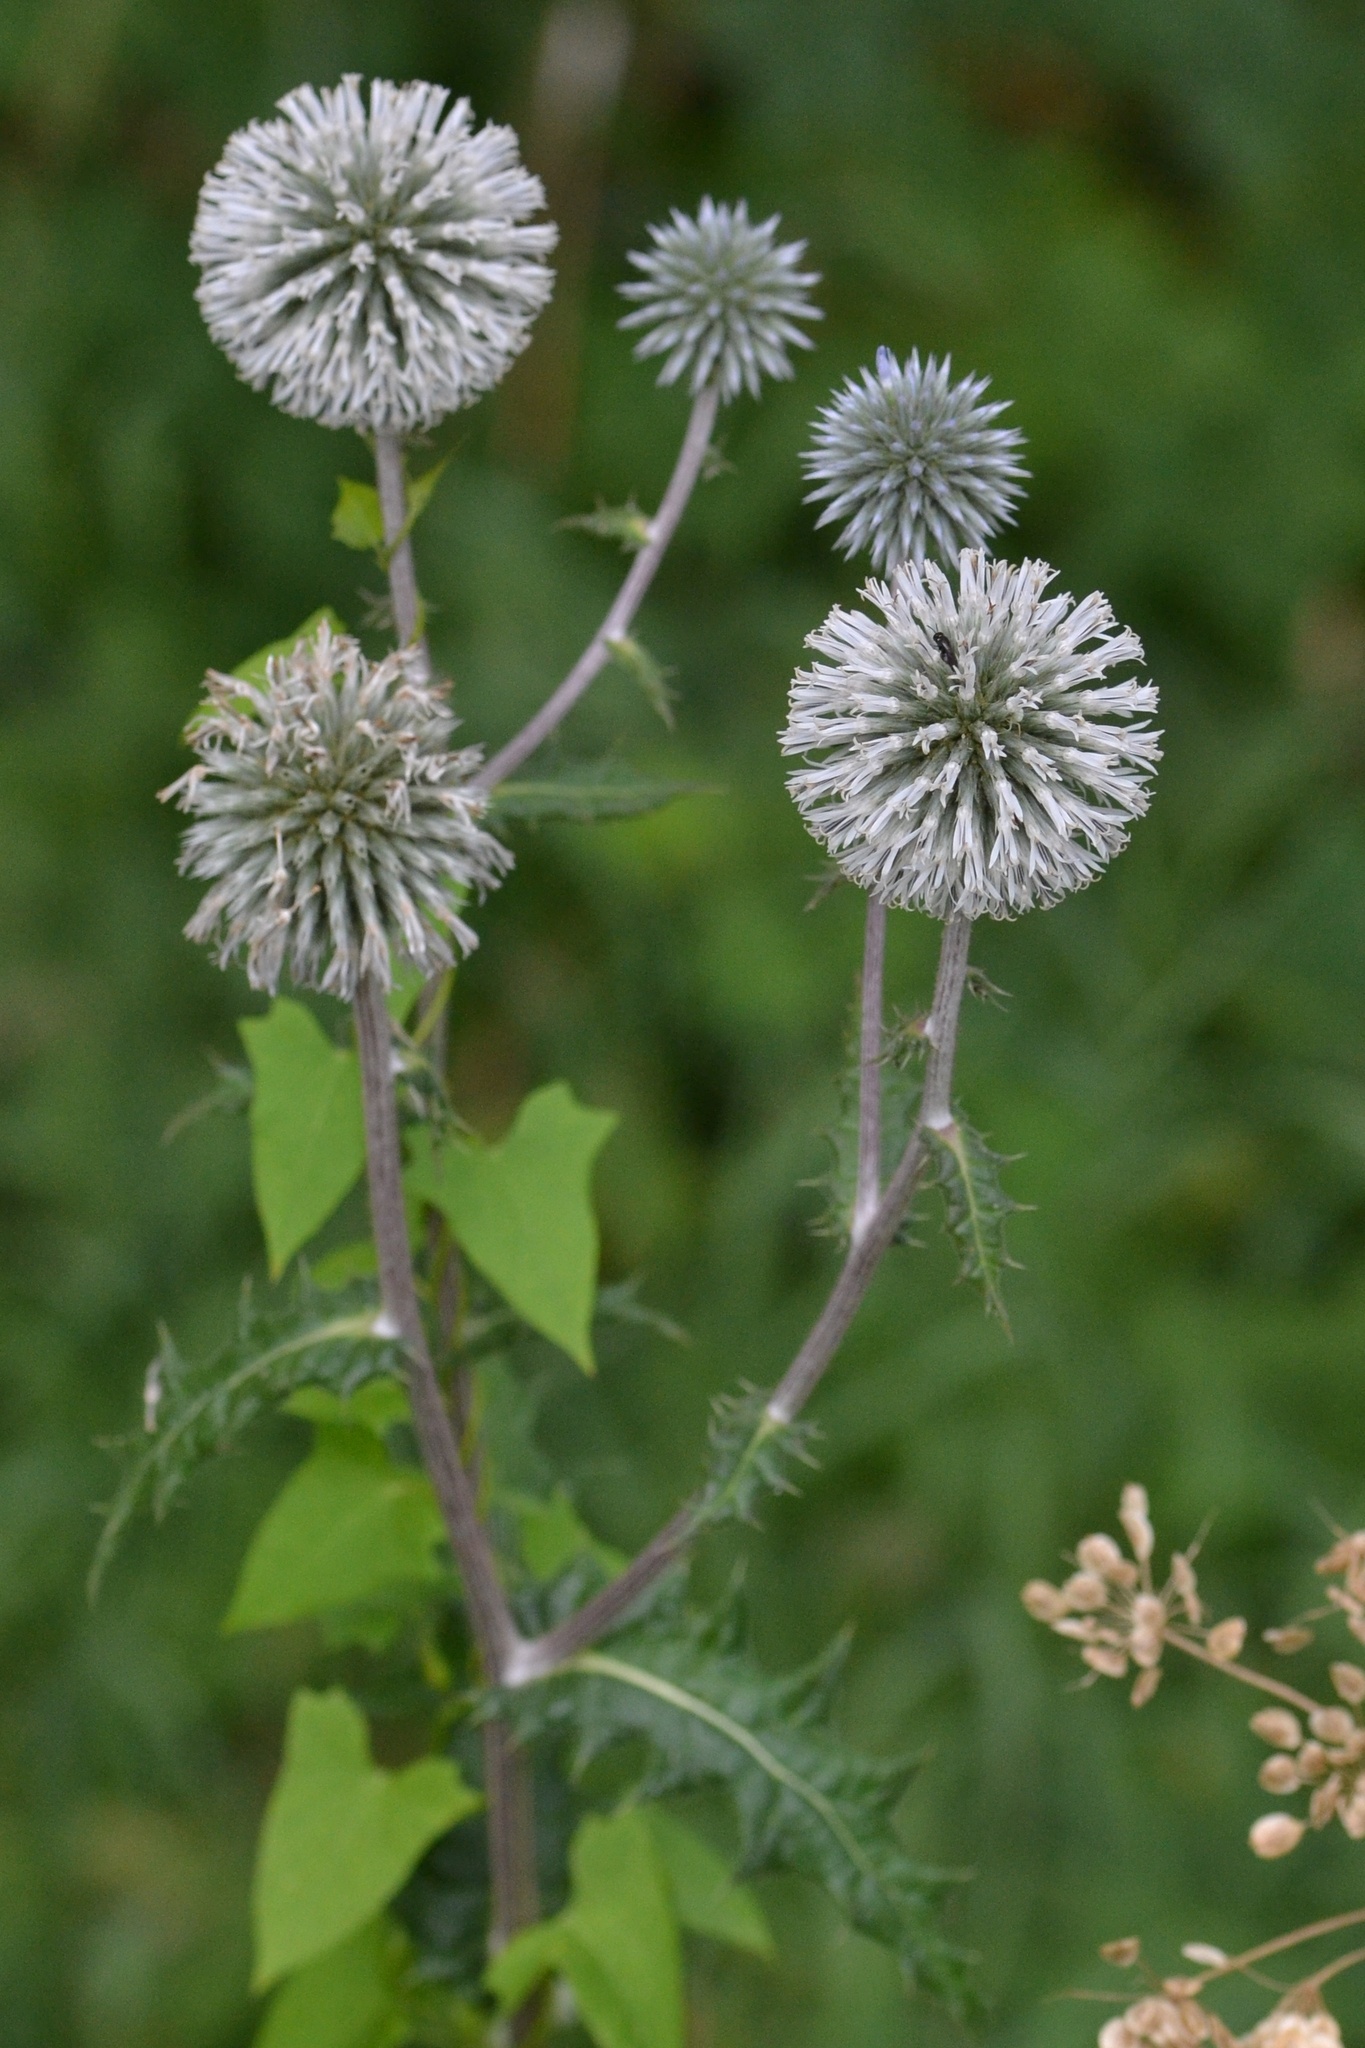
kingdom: Plantae
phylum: Tracheophyta
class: Magnoliopsida
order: Asterales
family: Asteraceae
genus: Echinops
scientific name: Echinops sphaerocephalus
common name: Glandular globe-thistle
